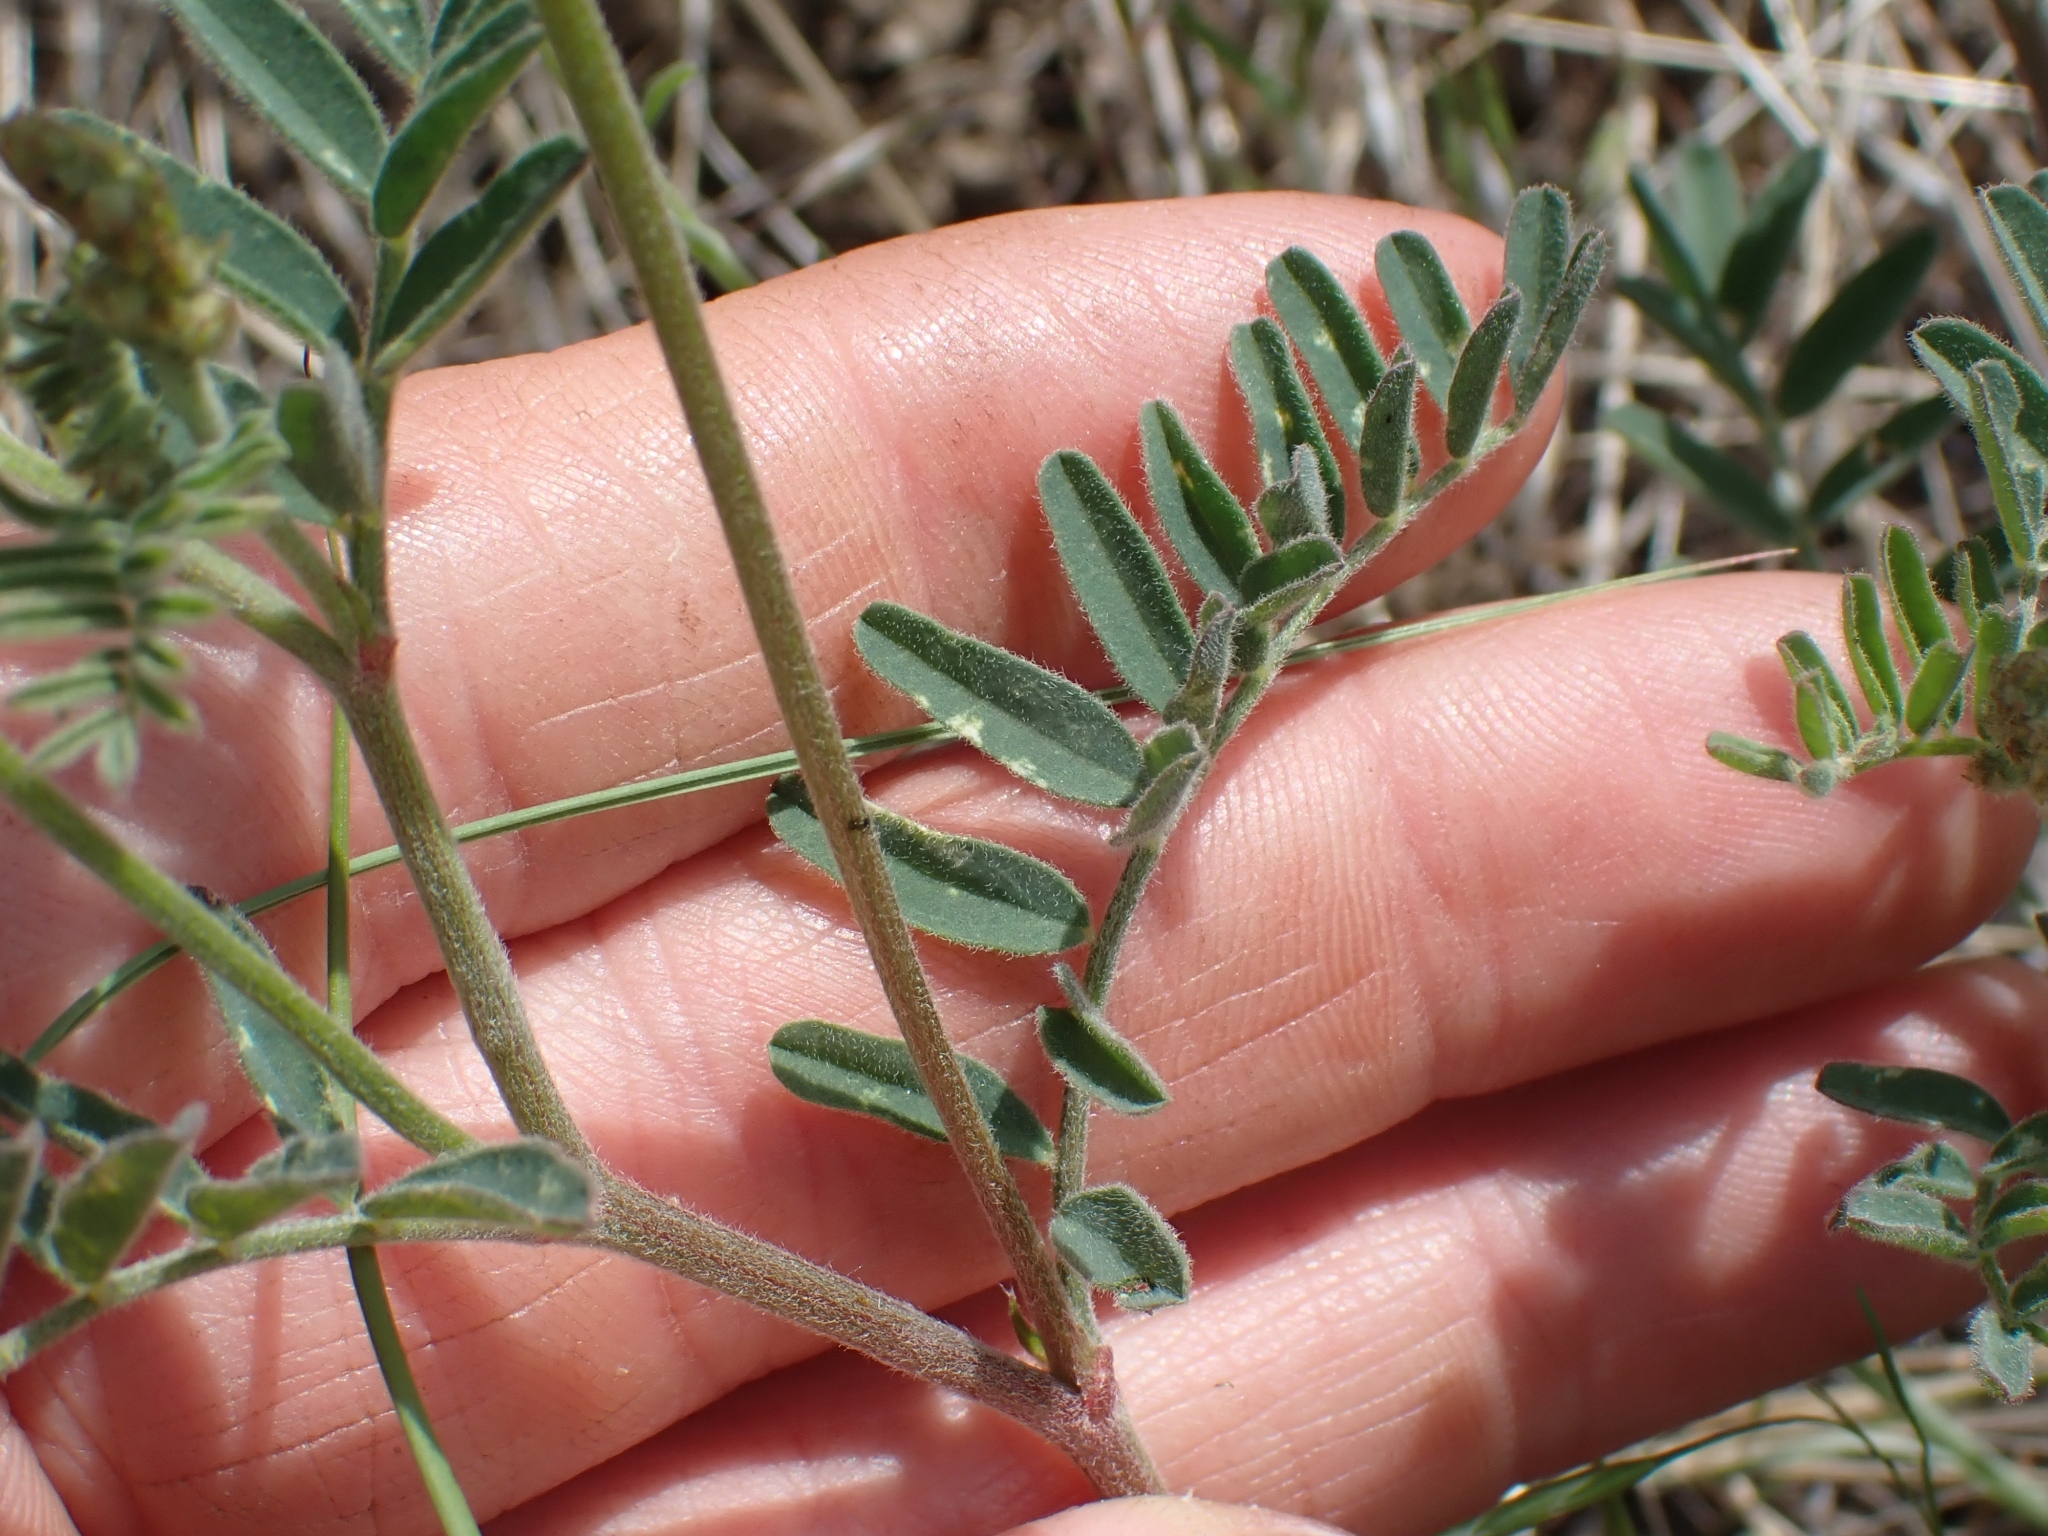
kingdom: Plantae
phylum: Tracheophyta
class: Magnoliopsida
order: Fabales
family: Fabaceae
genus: Astragalus
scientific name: Astragalus collinus
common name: Hill milk-vetch
